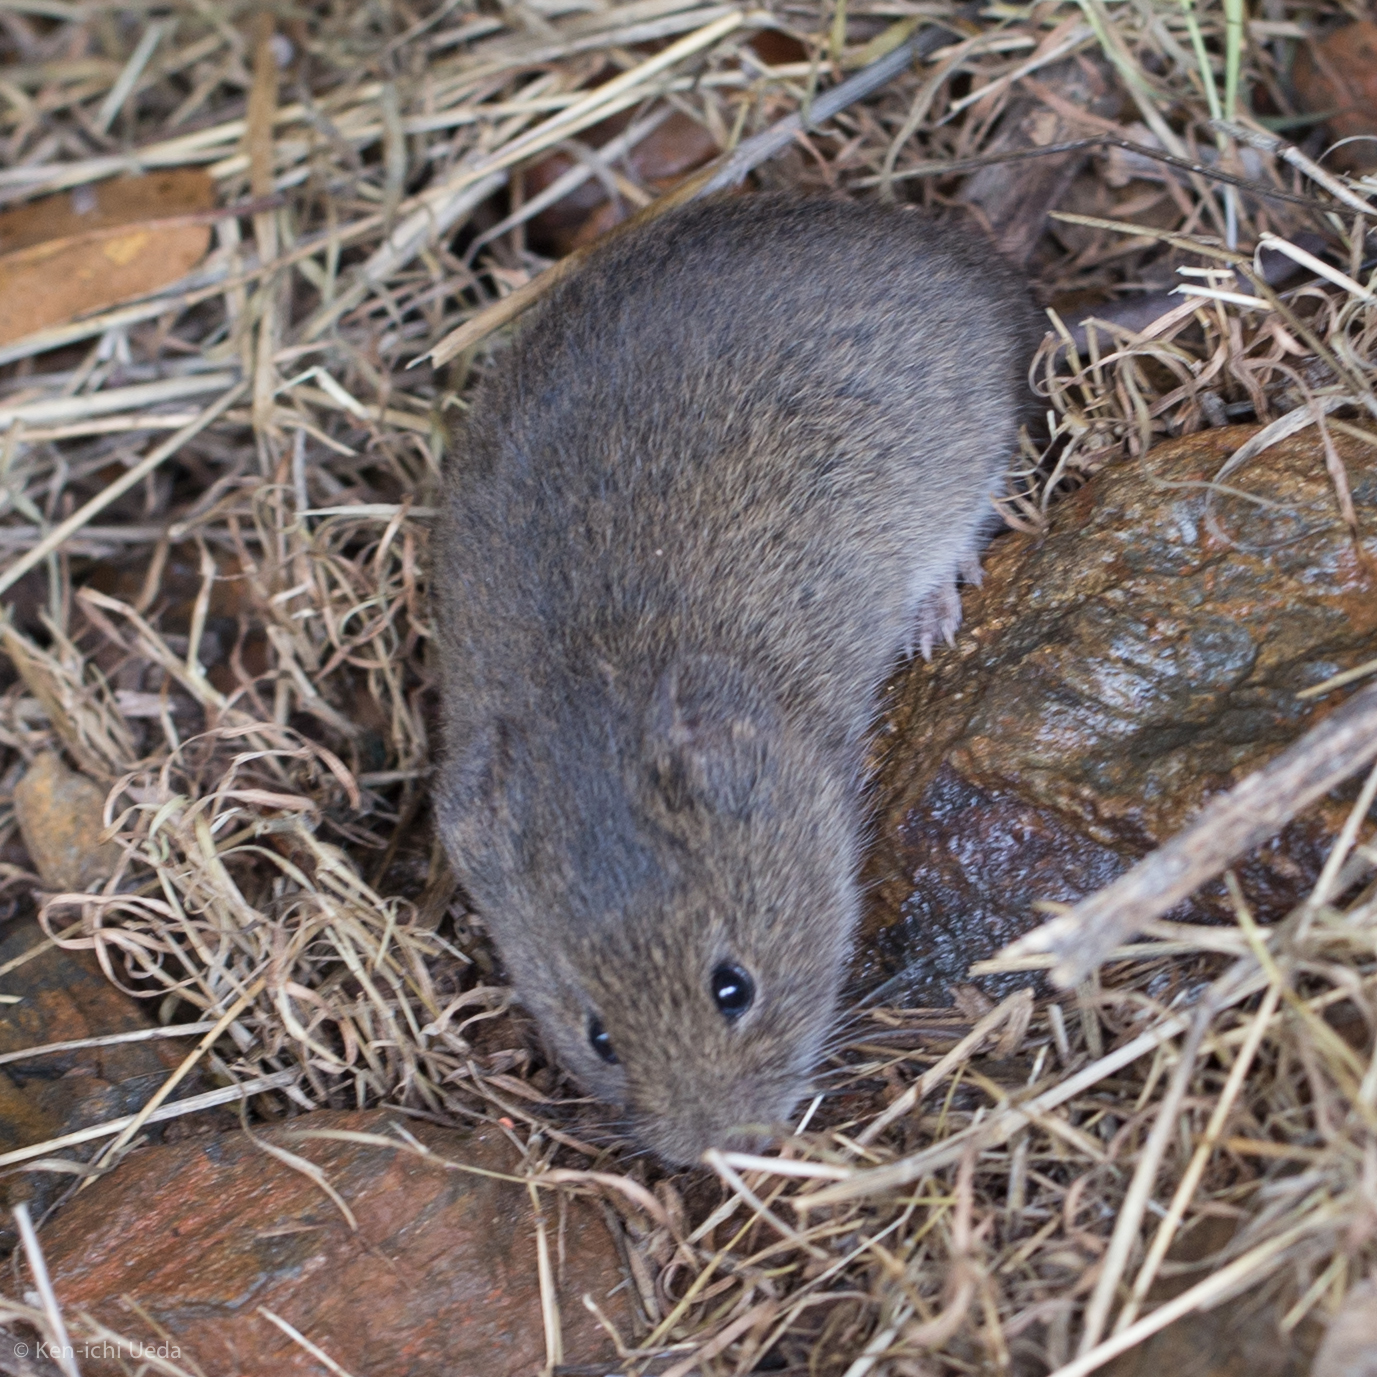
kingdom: Animalia
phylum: Chordata
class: Mammalia
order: Rodentia
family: Cricetidae
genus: Microtus
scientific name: Microtus californicus
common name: California vole
